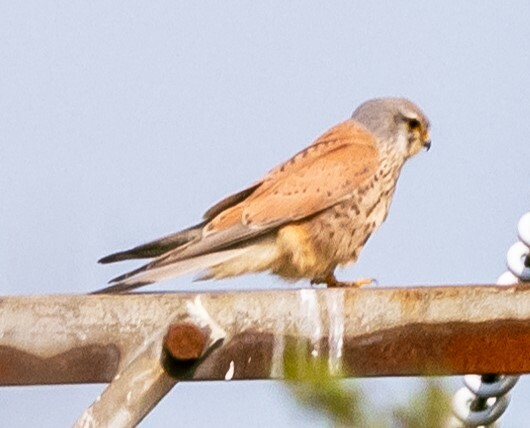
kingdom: Animalia
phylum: Chordata
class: Aves
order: Falconiformes
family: Falconidae
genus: Falco
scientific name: Falco tinnunculus
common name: Common kestrel
